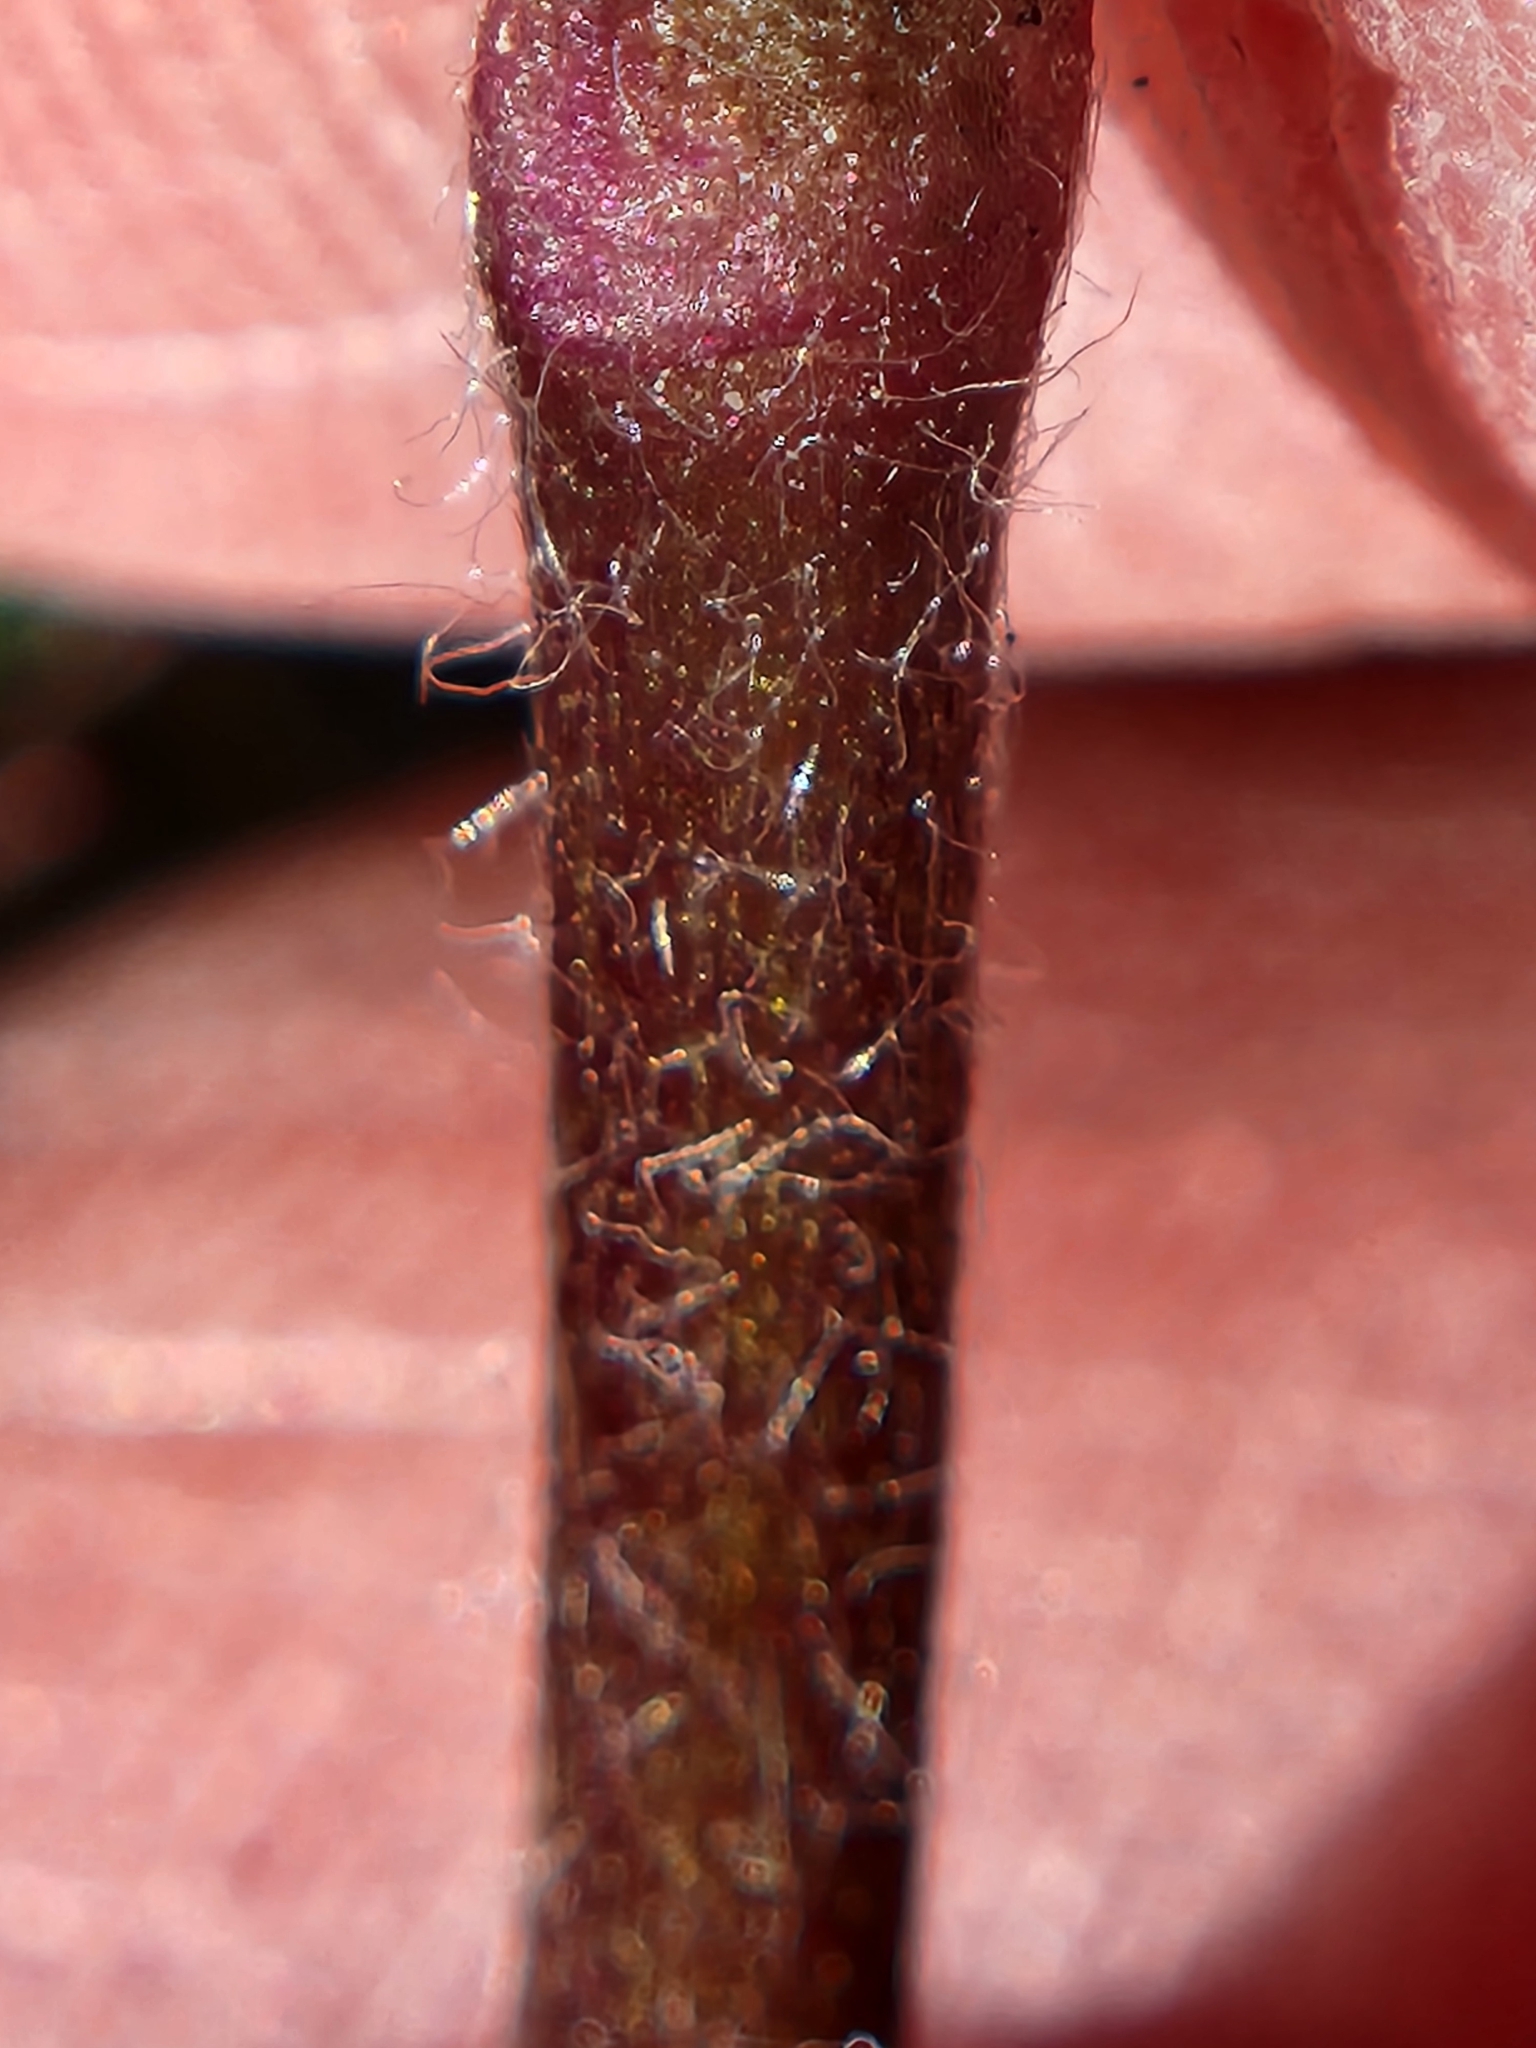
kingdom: Plantae
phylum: Tracheophyta
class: Magnoliopsida
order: Ranunculales
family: Ranunculaceae
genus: Anemone
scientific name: Anemone tuberosa
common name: Desert anemone
